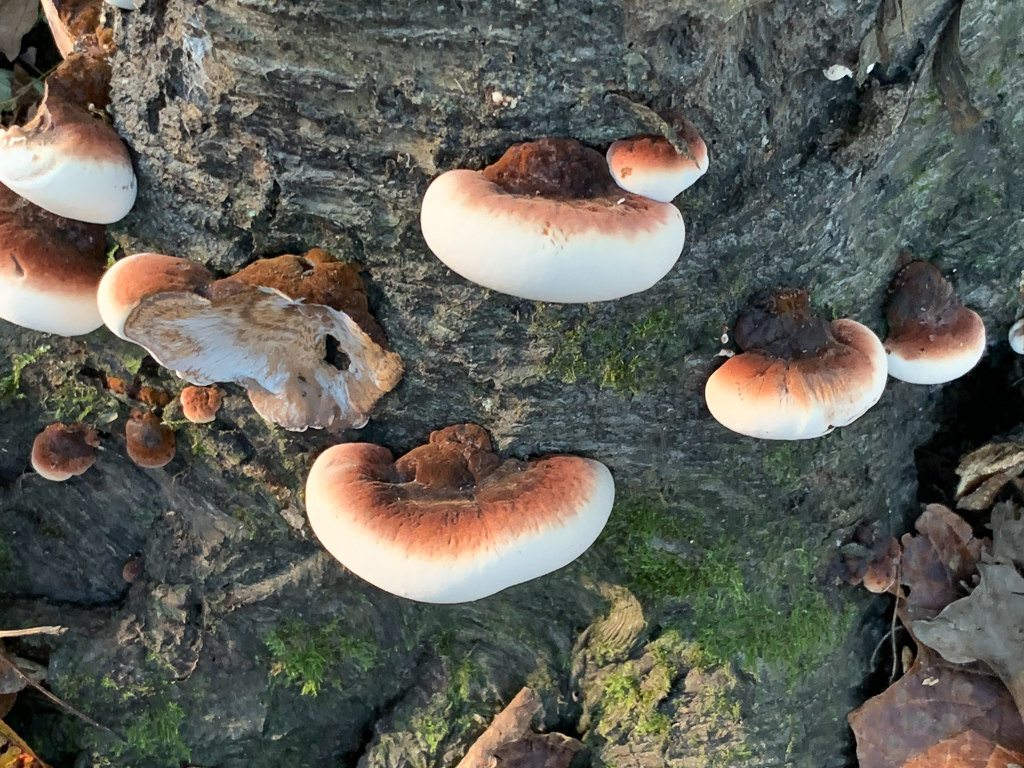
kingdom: Fungi
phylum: Basidiomycota
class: Agaricomycetes
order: Polyporales
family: Ischnodermataceae
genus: Ischnoderma
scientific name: Ischnoderma resinosum
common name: Resinous polypore
